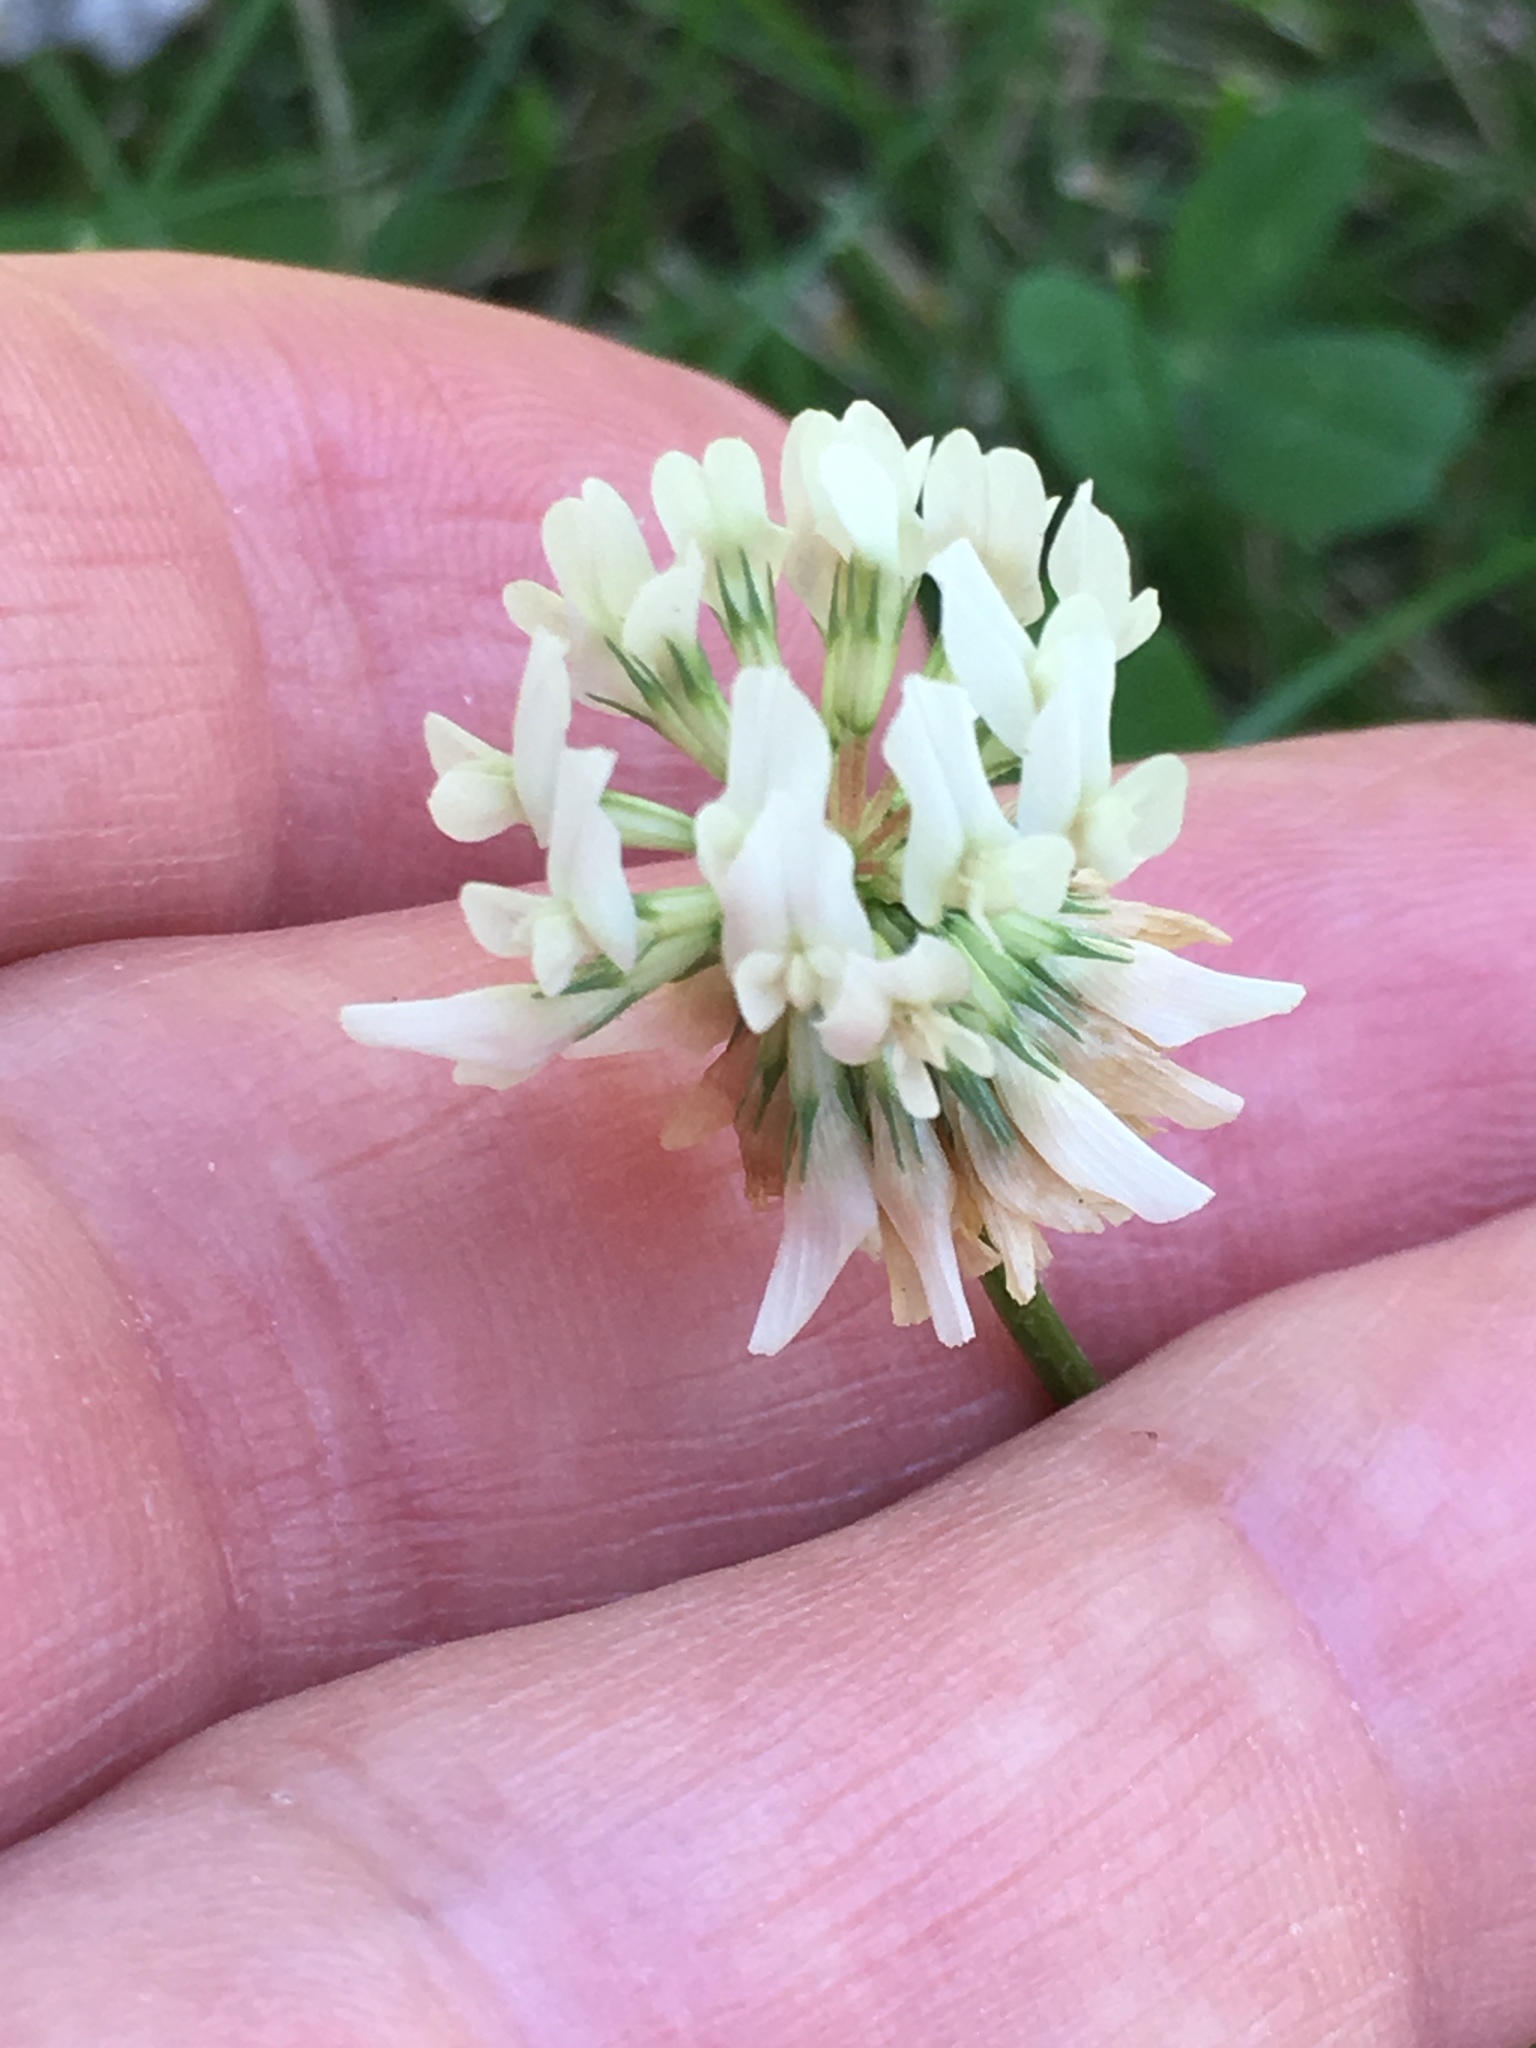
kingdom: Plantae
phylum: Tracheophyta
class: Magnoliopsida
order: Fabales
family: Fabaceae
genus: Trifolium
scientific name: Trifolium repens
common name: White clover
